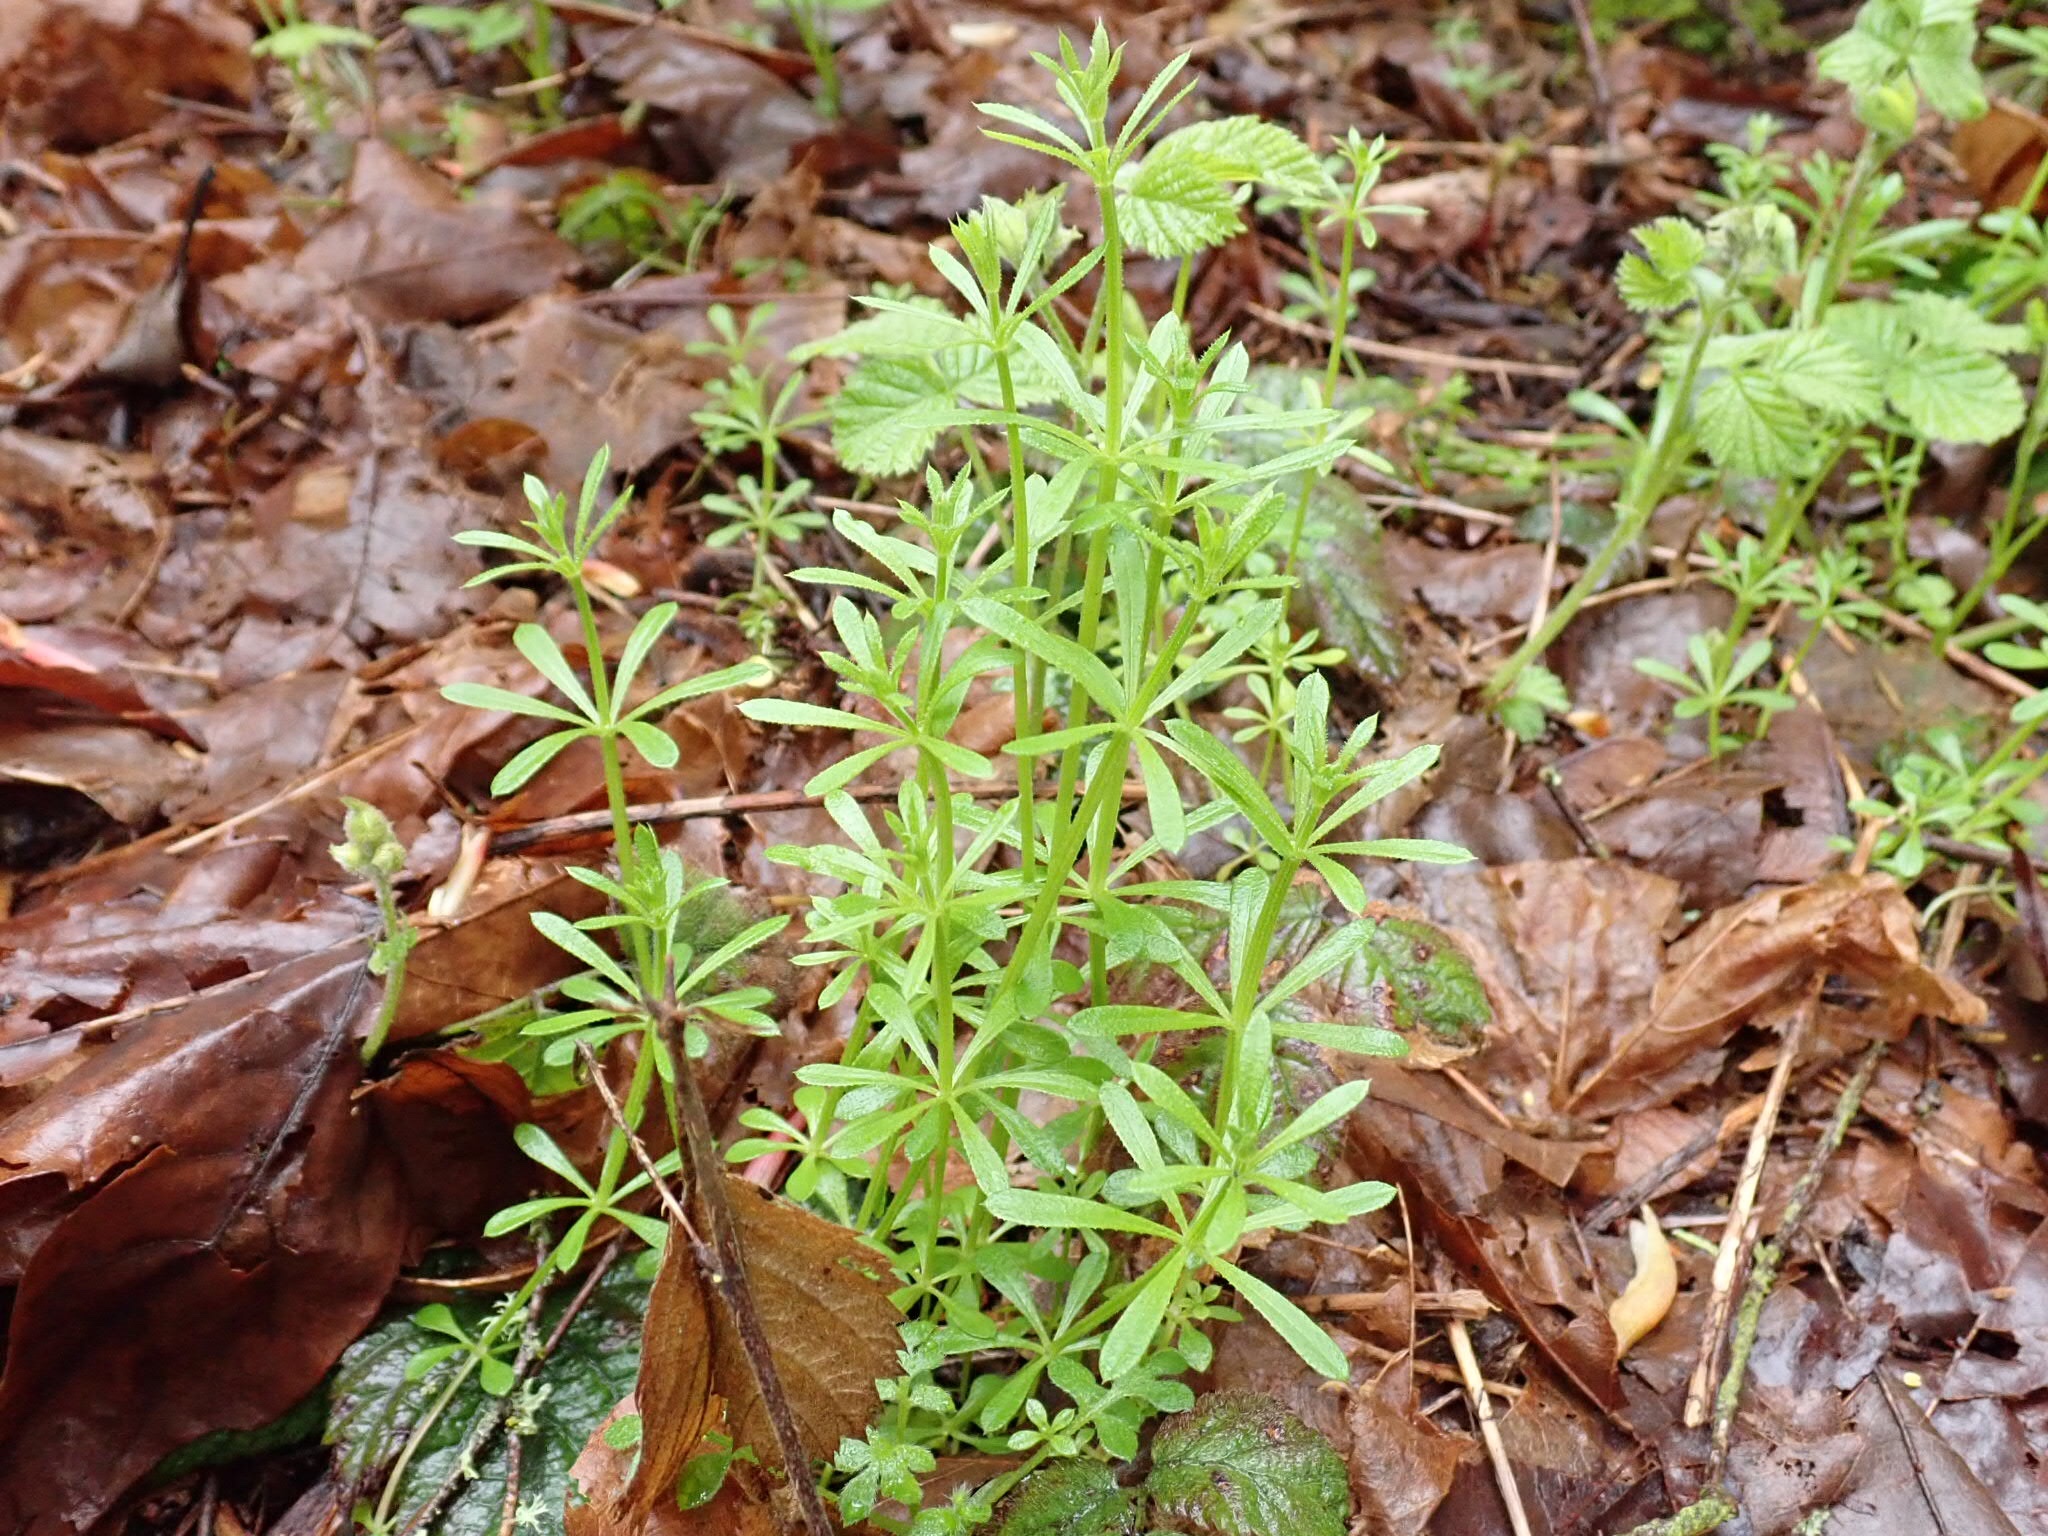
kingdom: Plantae
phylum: Tracheophyta
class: Magnoliopsida
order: Gentianales
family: Rubiaceae
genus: Galium
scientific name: Galium aparine
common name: Cleavers
